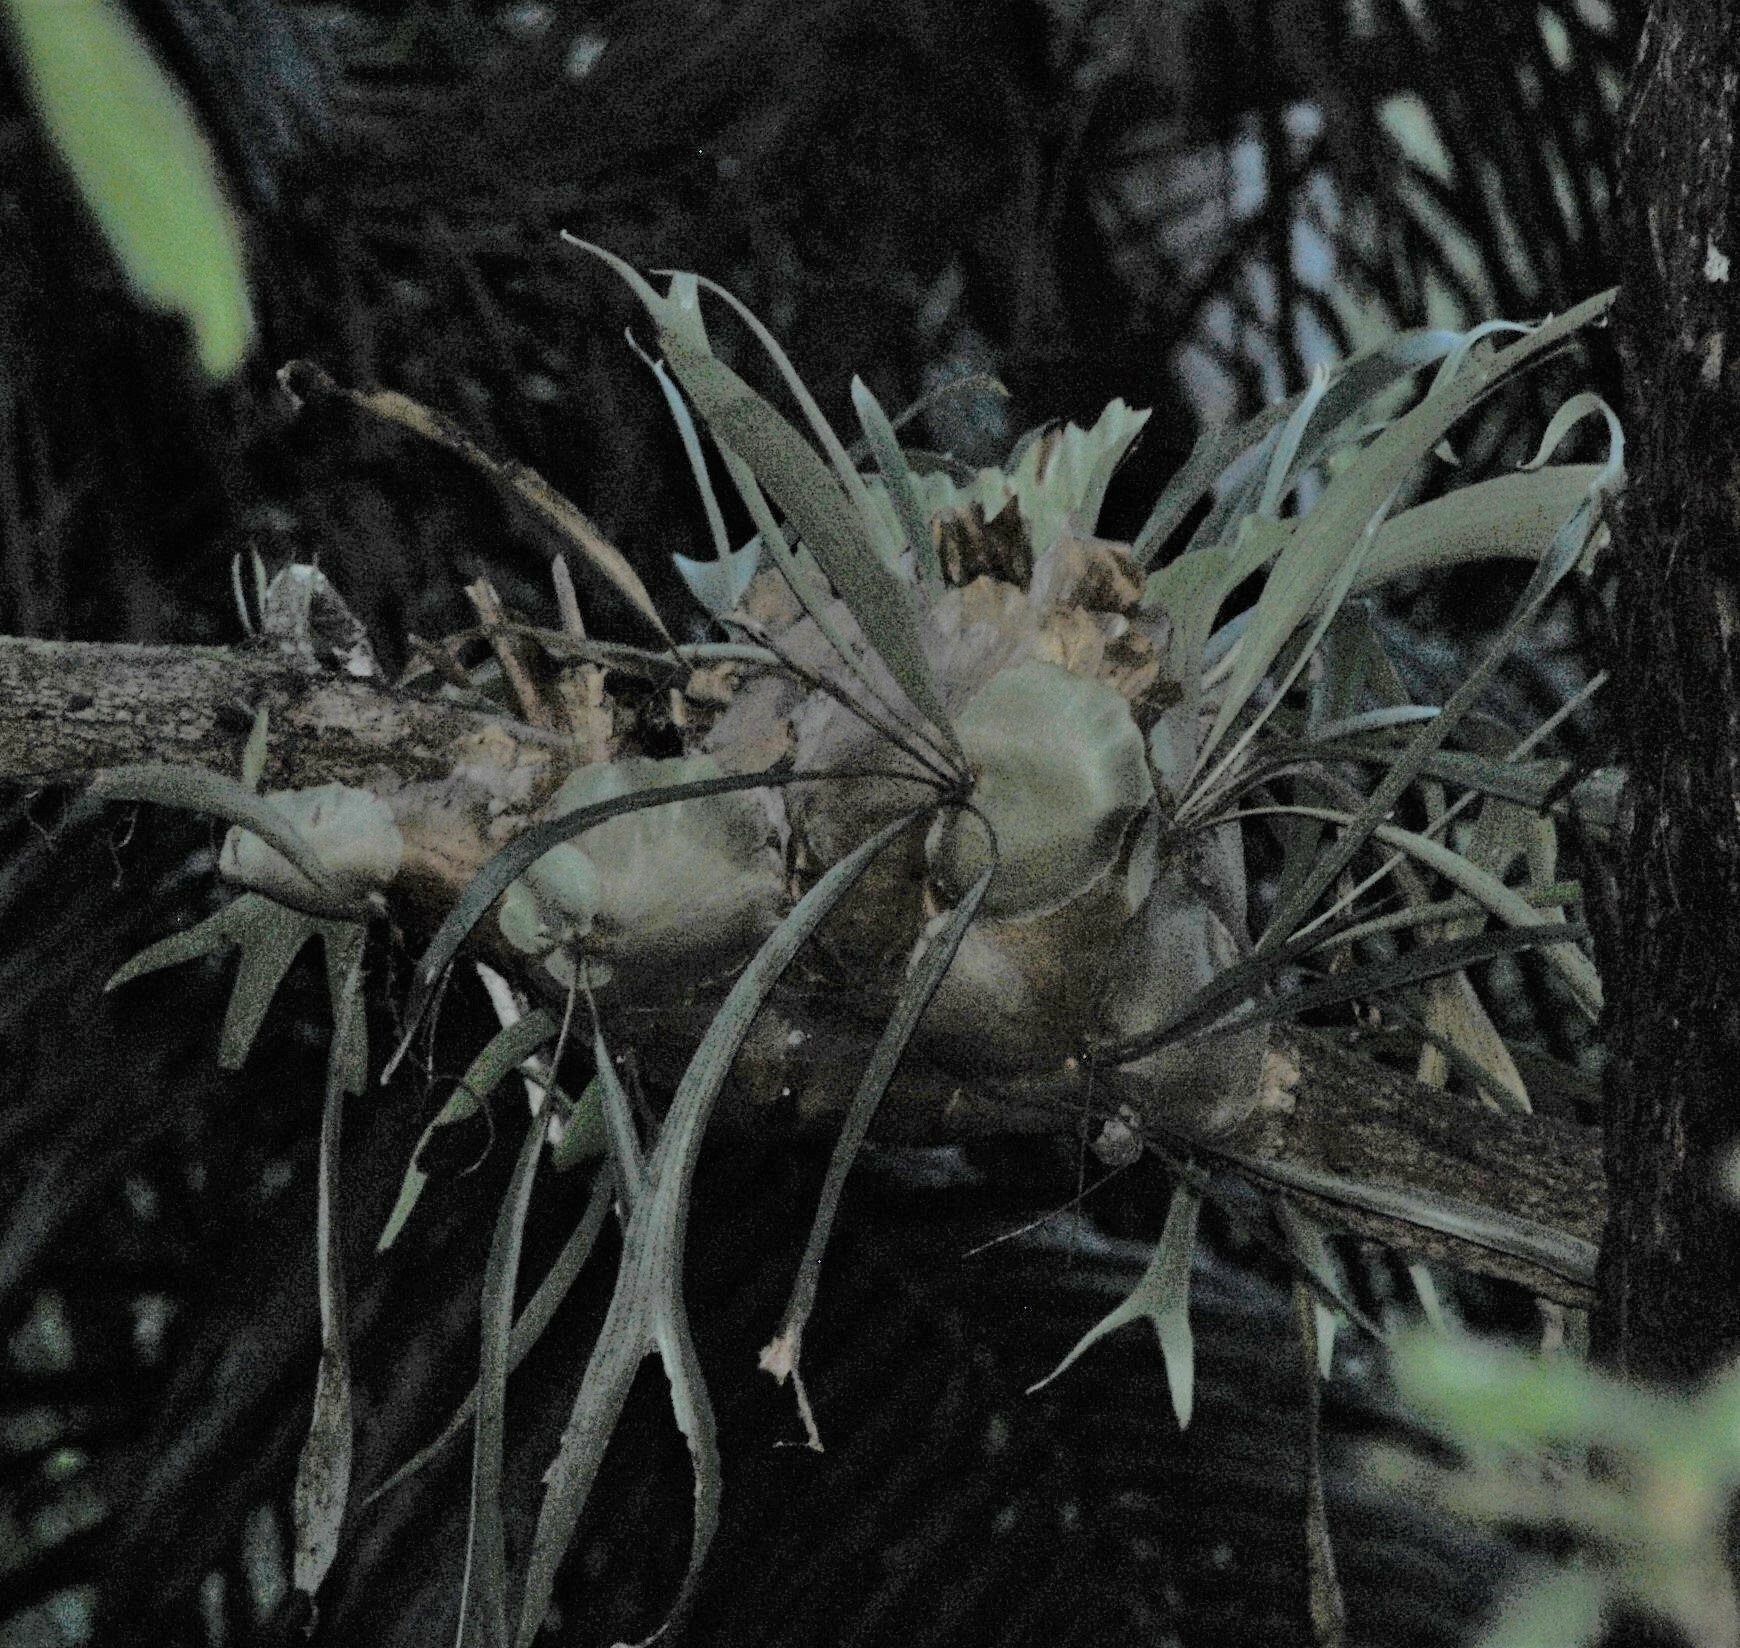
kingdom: Plantae
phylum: Tracheophyta
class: Polypodiopsida
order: Polypodiales
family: Polypodiaceae
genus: Platycerium
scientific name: Platycerium bifurcatum
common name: Elkhorn fern
